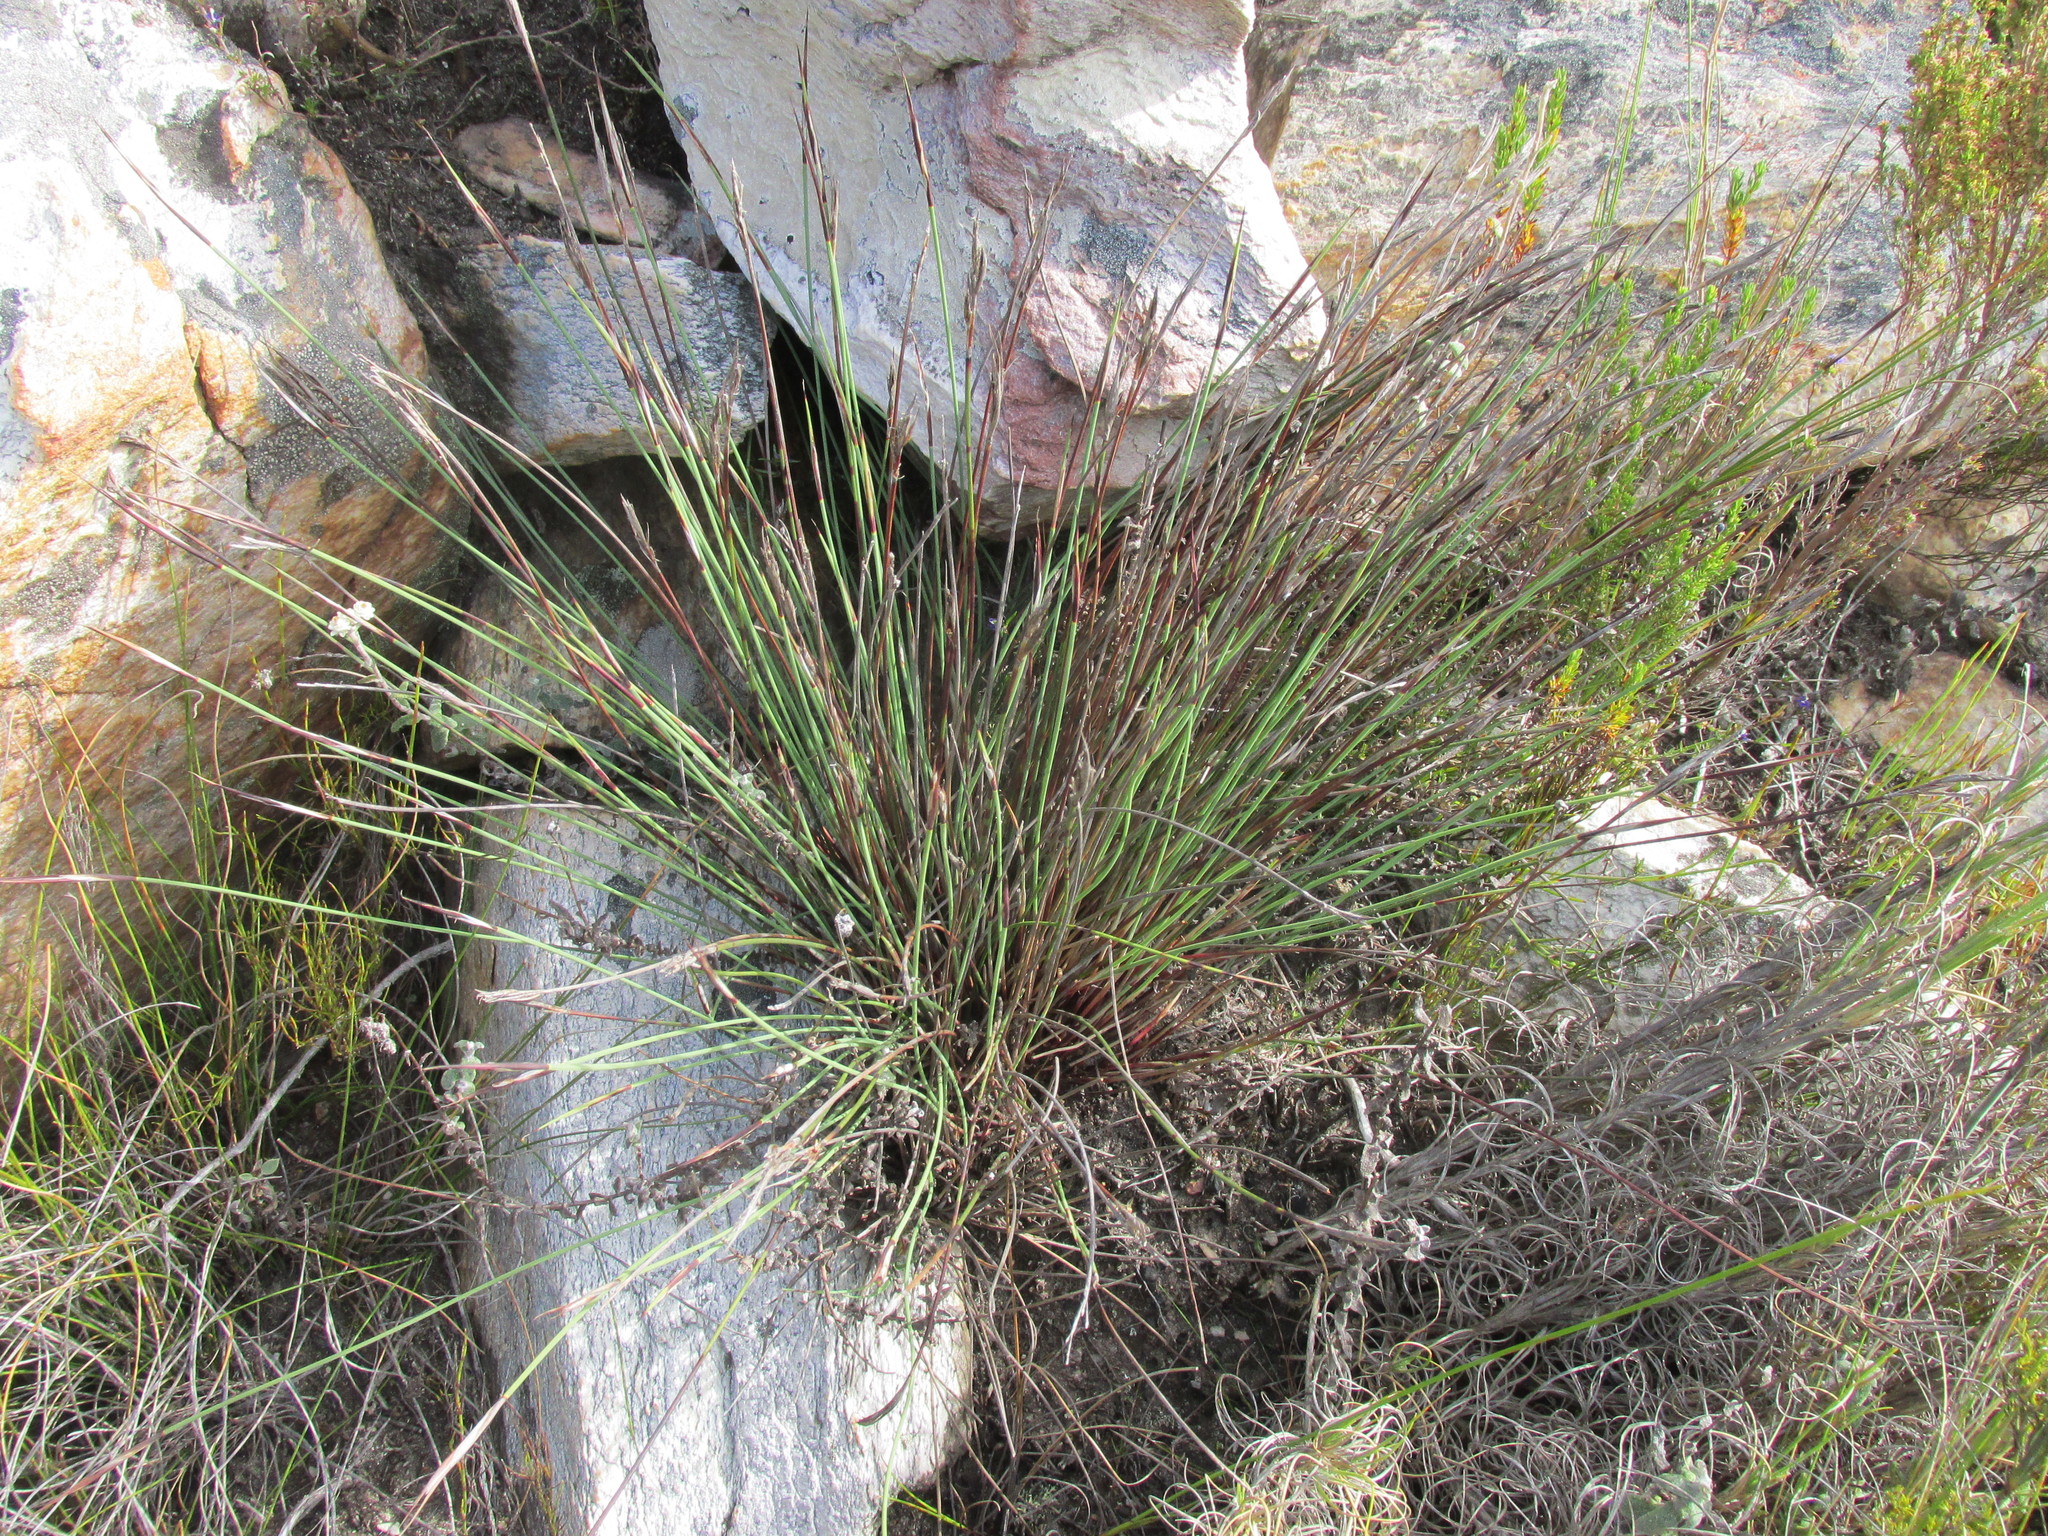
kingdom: Plantae
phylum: Tracheophyta
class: Liliopsida
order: Poales
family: Cyperaceae
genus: Schoenus
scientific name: Schoenus selinae
